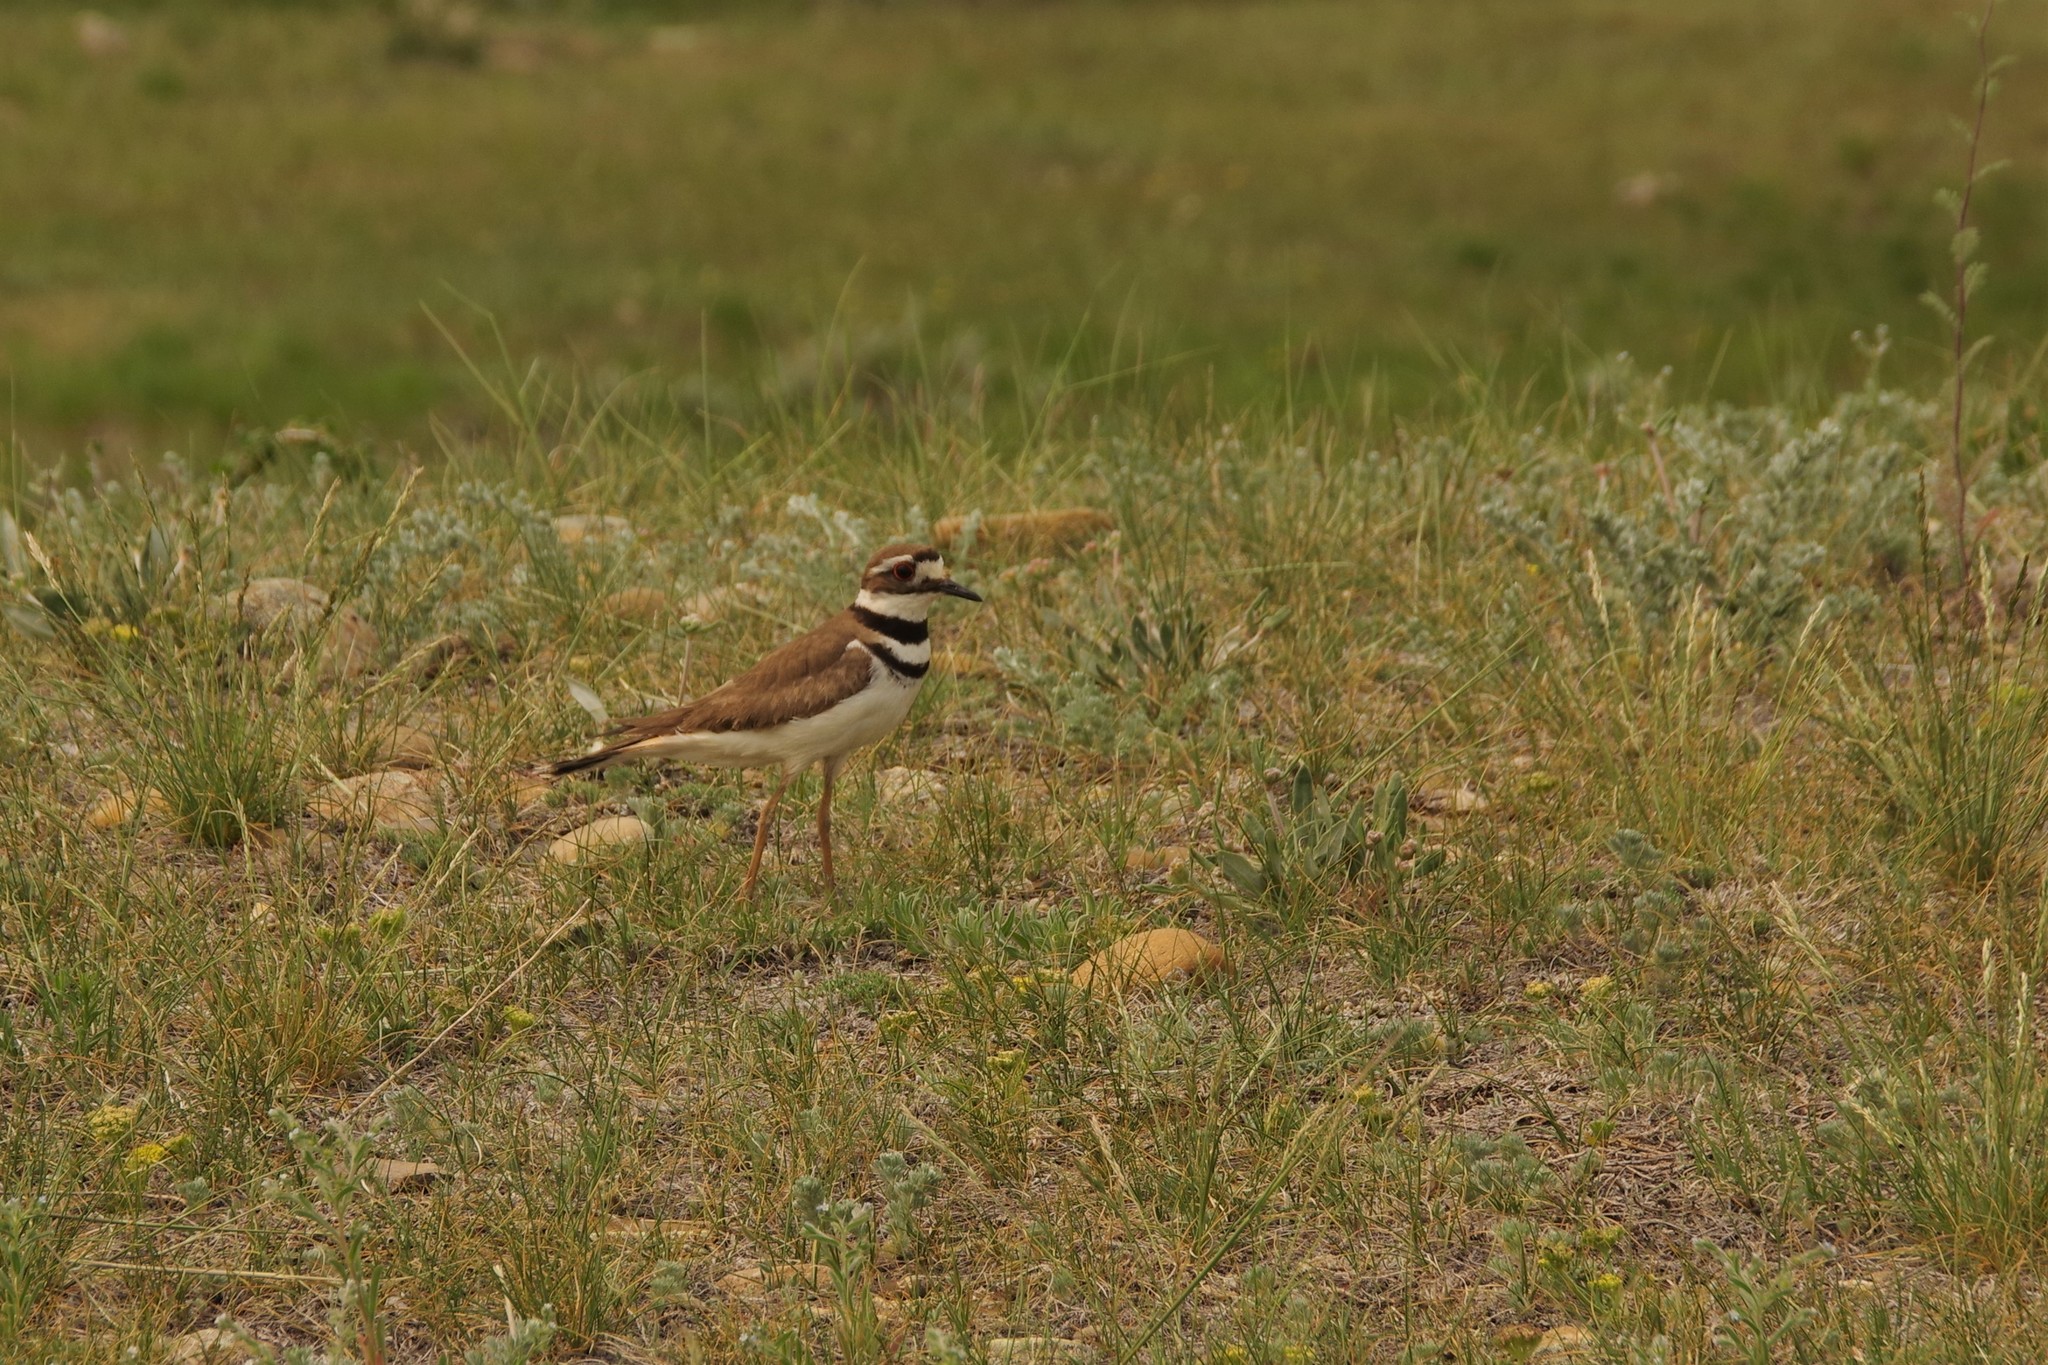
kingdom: Animalia
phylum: Chordata
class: Aves
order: Charadriiformes
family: Charadriidae
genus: Charadrius
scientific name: Charadrius vociferus
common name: Killdeer
